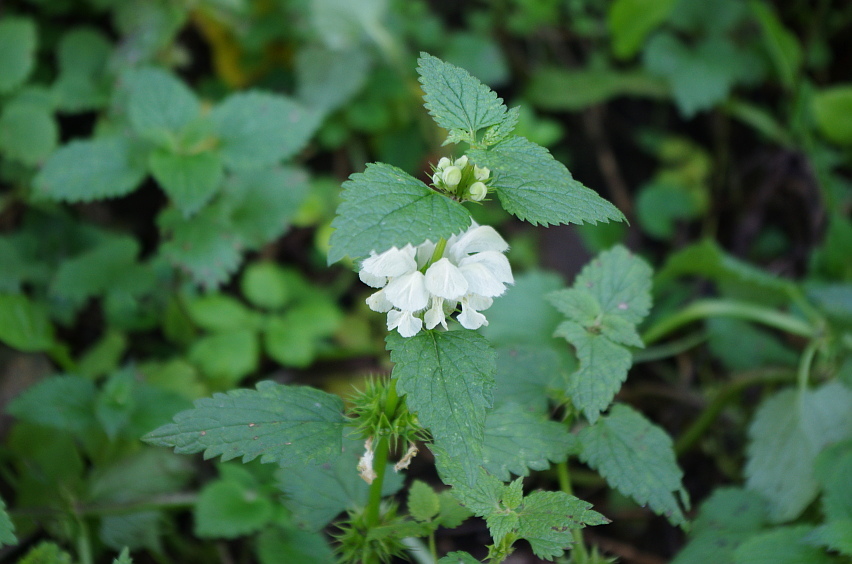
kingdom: Plantae
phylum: Tracheophyta
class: Magnoliopsida
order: Lamiales
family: Lamiaceae
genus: Lamium
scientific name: Lamium album
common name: White dead-nettle
